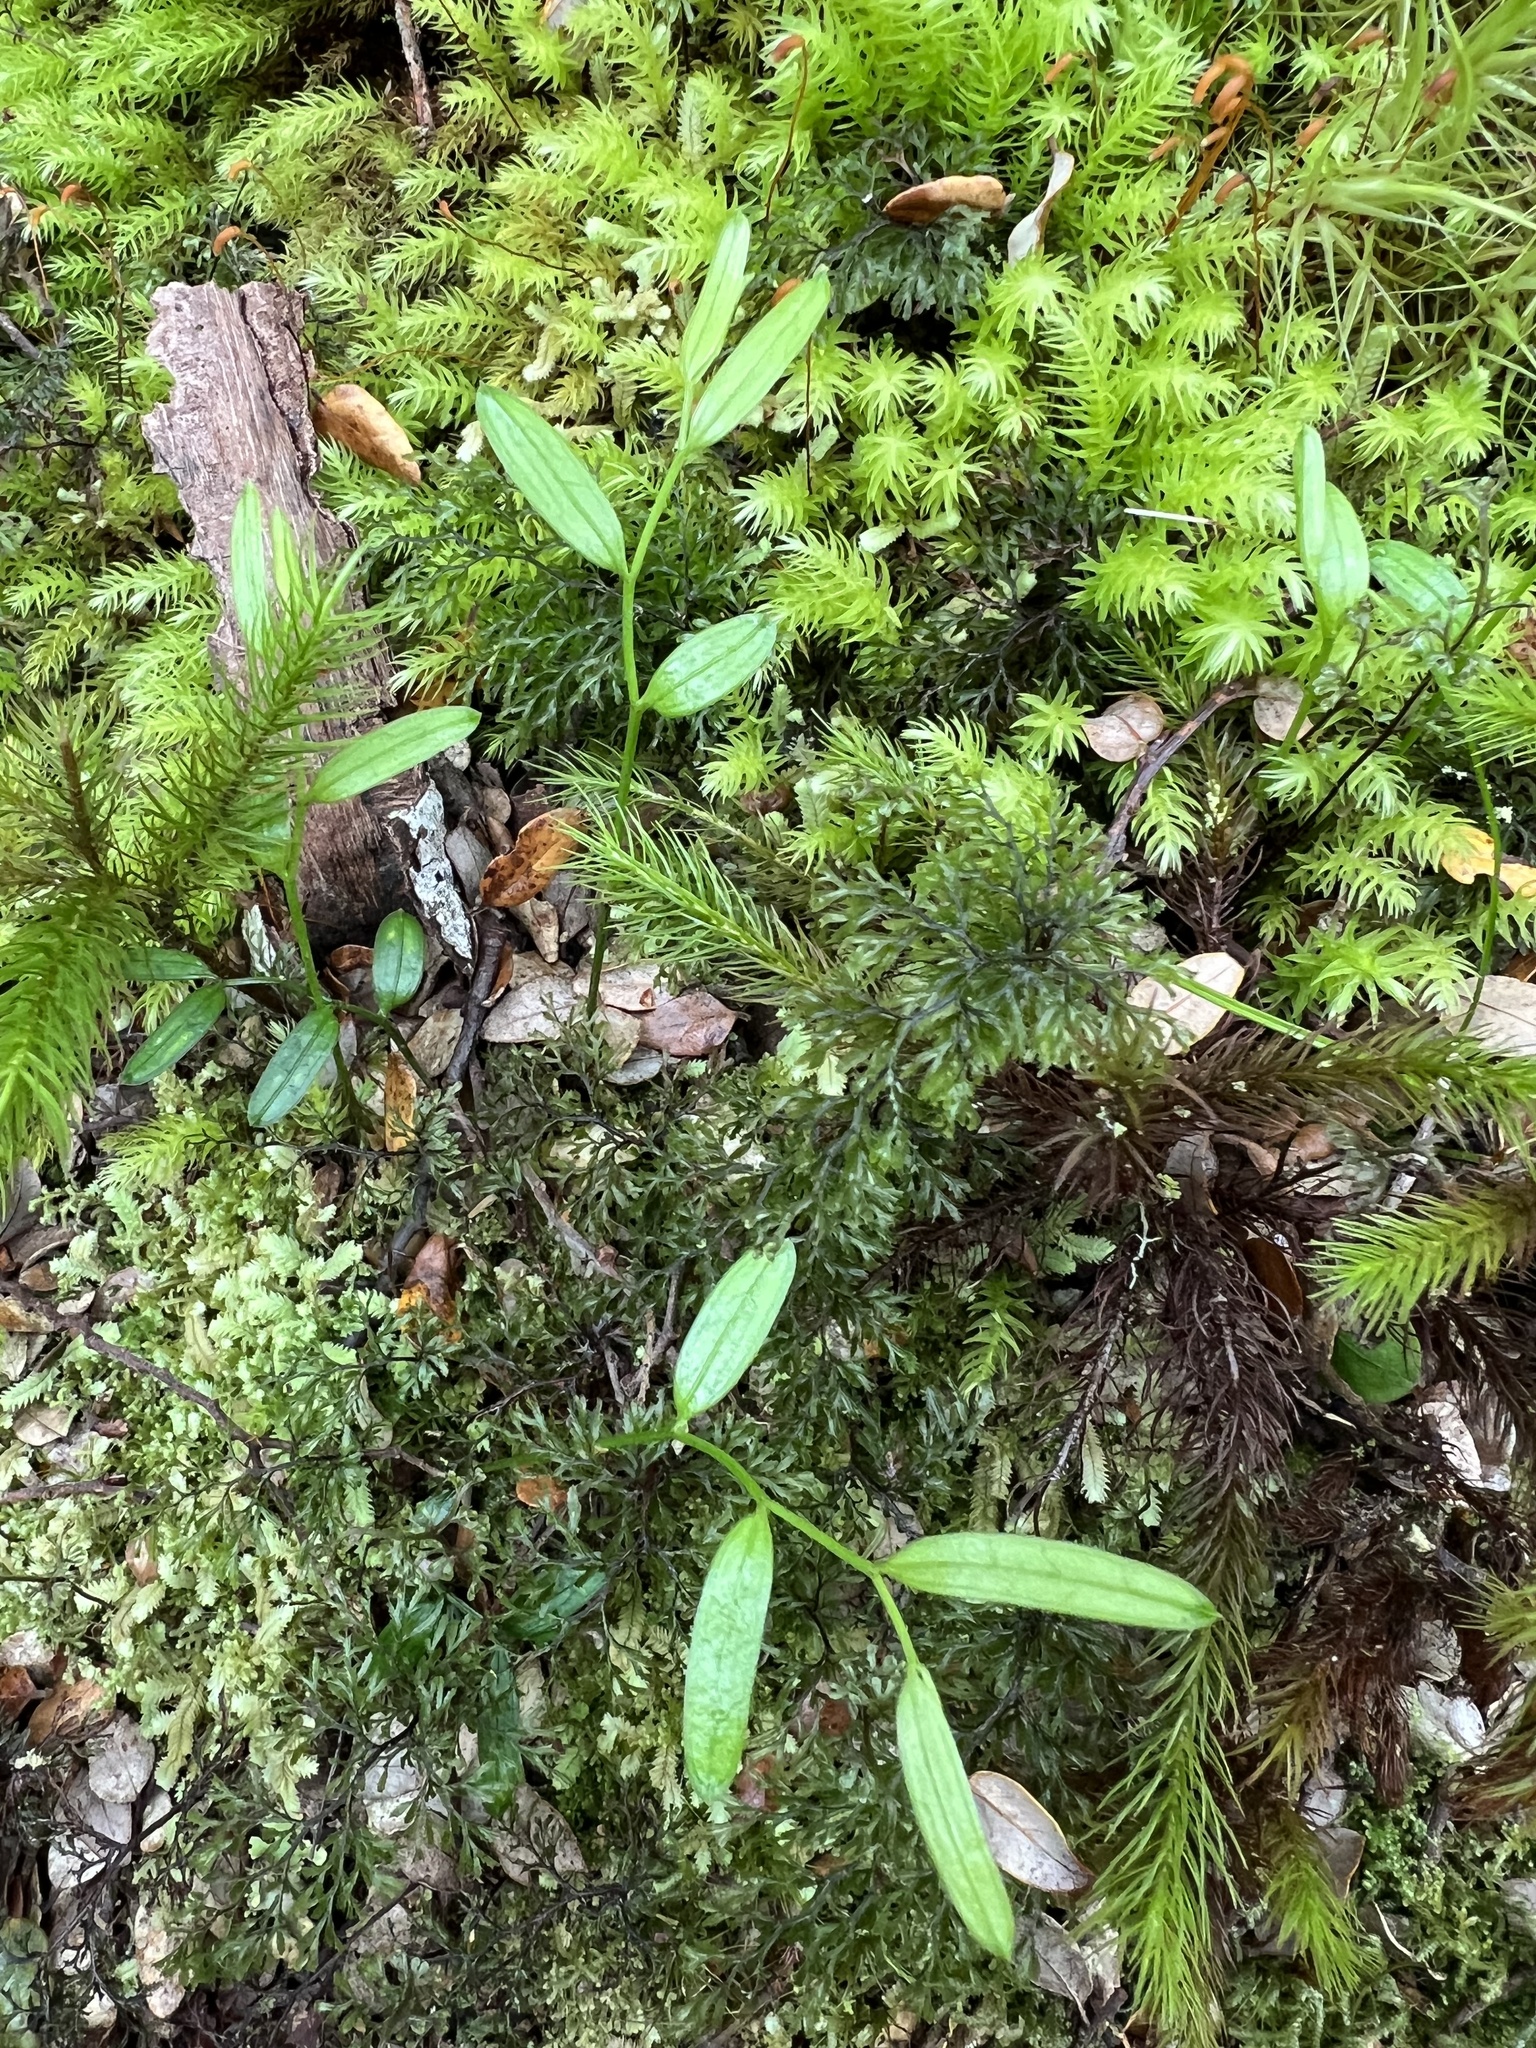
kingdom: Plantae
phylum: Tracheophyta
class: Liliopsida
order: Liliales
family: Alstroemeriaceae
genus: Luzuriaga
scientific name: Luzuriaga parviflora
